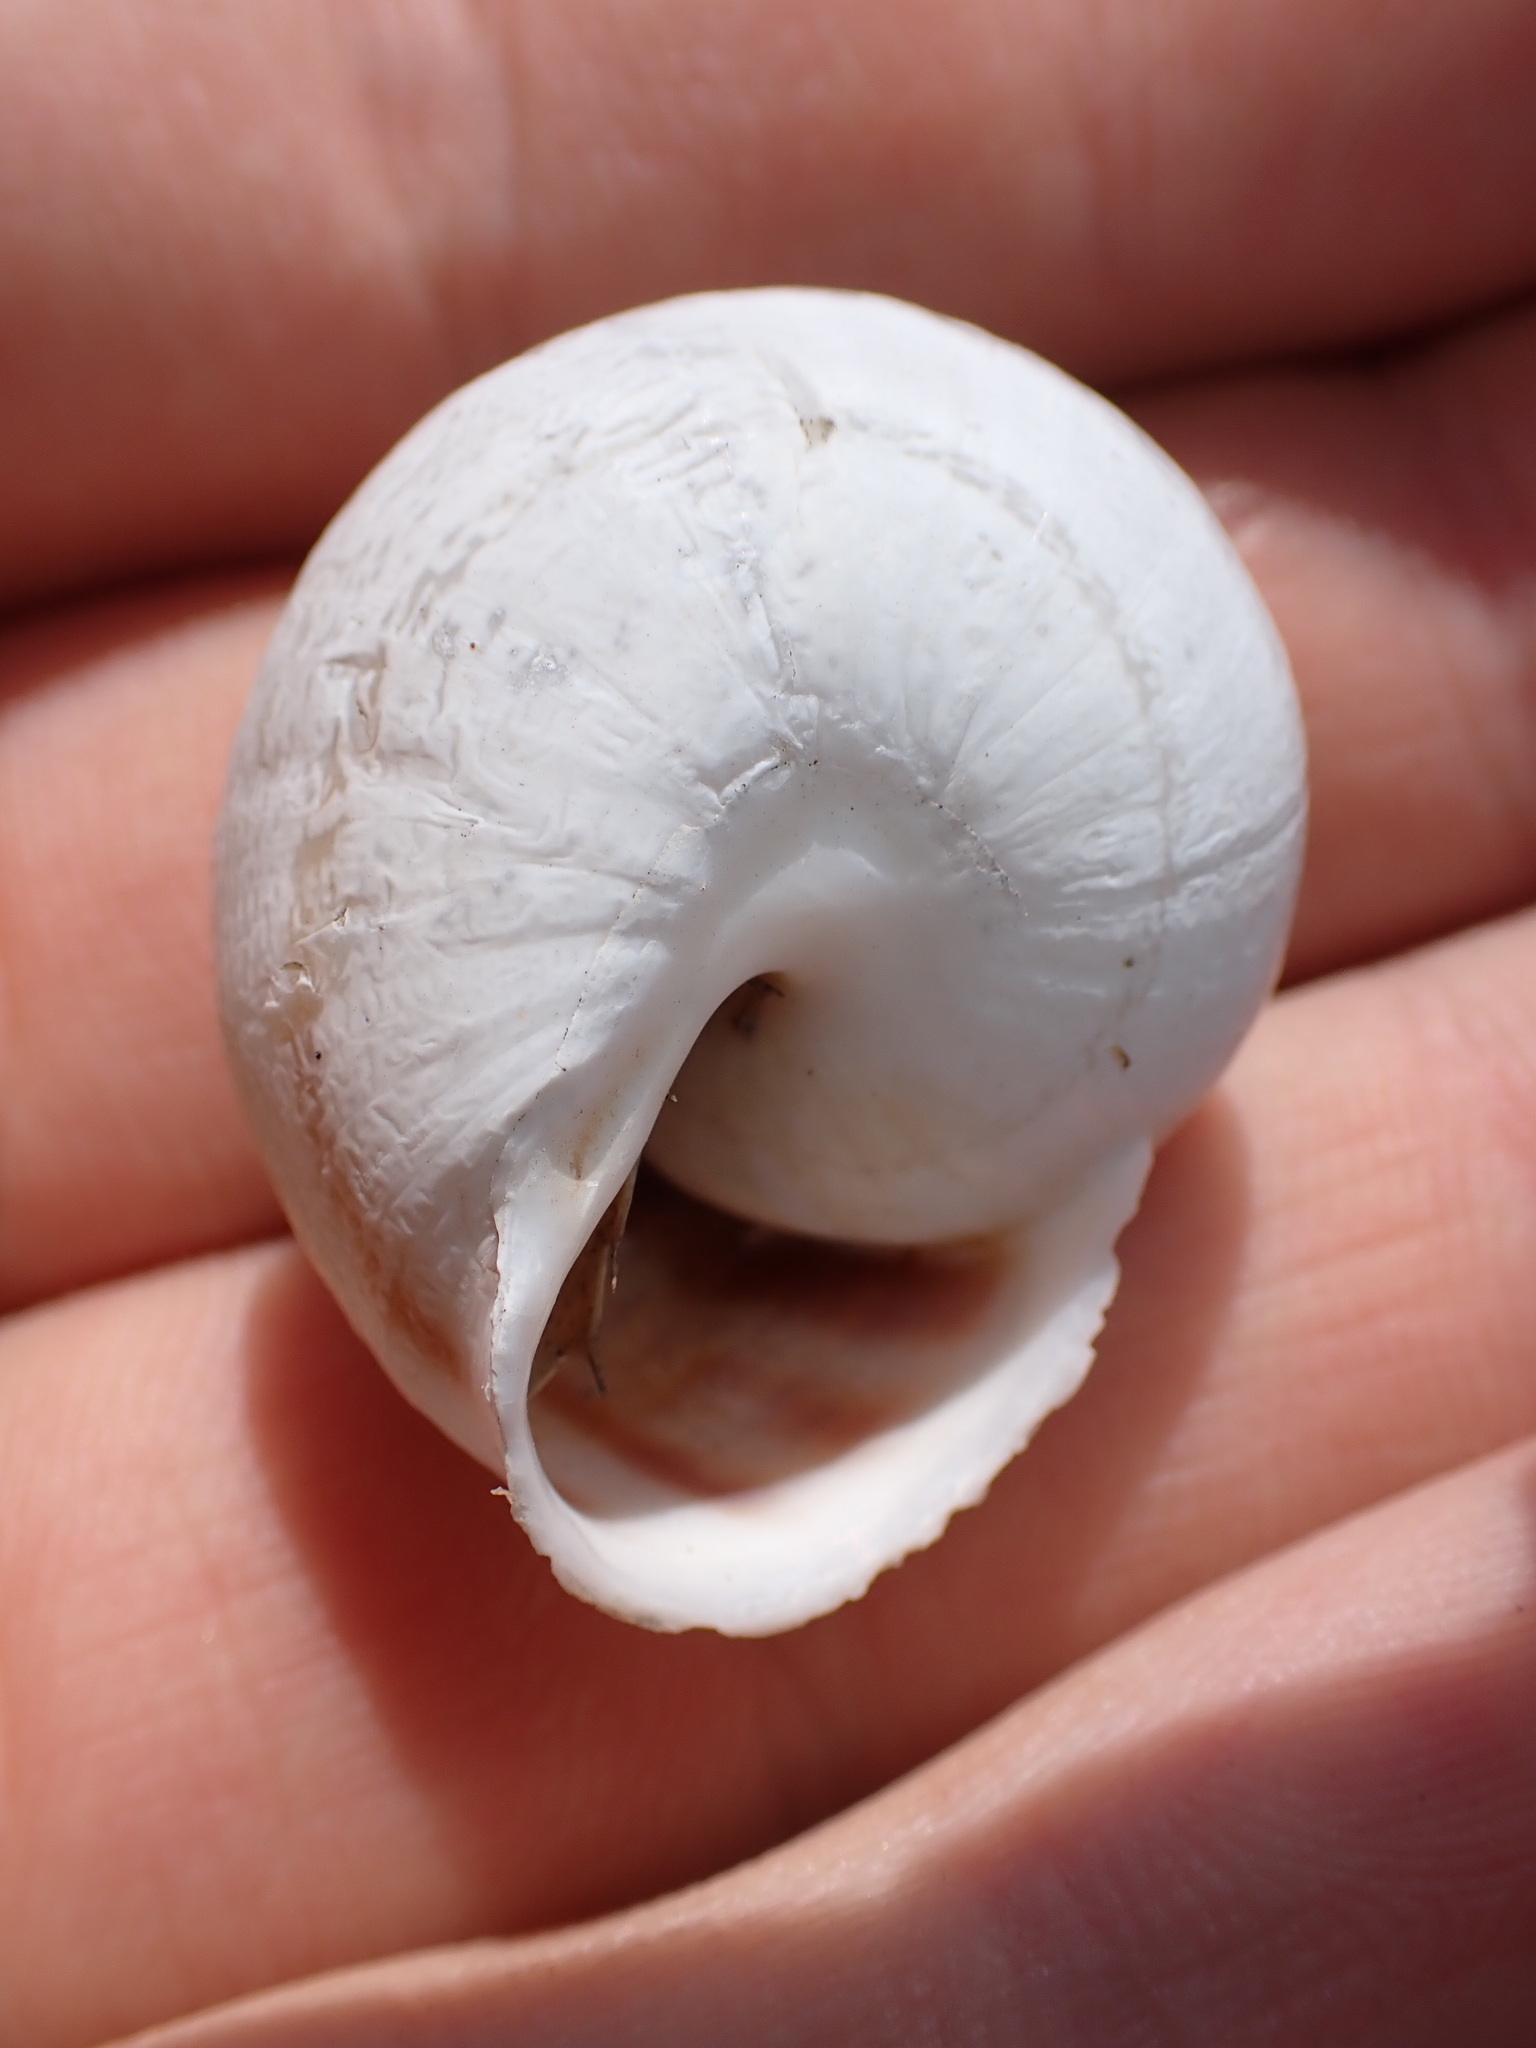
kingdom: Animalia
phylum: Mollusca
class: Gastropoda
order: Stylommatophora
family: Helicidae
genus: Eobania
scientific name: Eobania vermiculata
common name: Chocolateband snail
